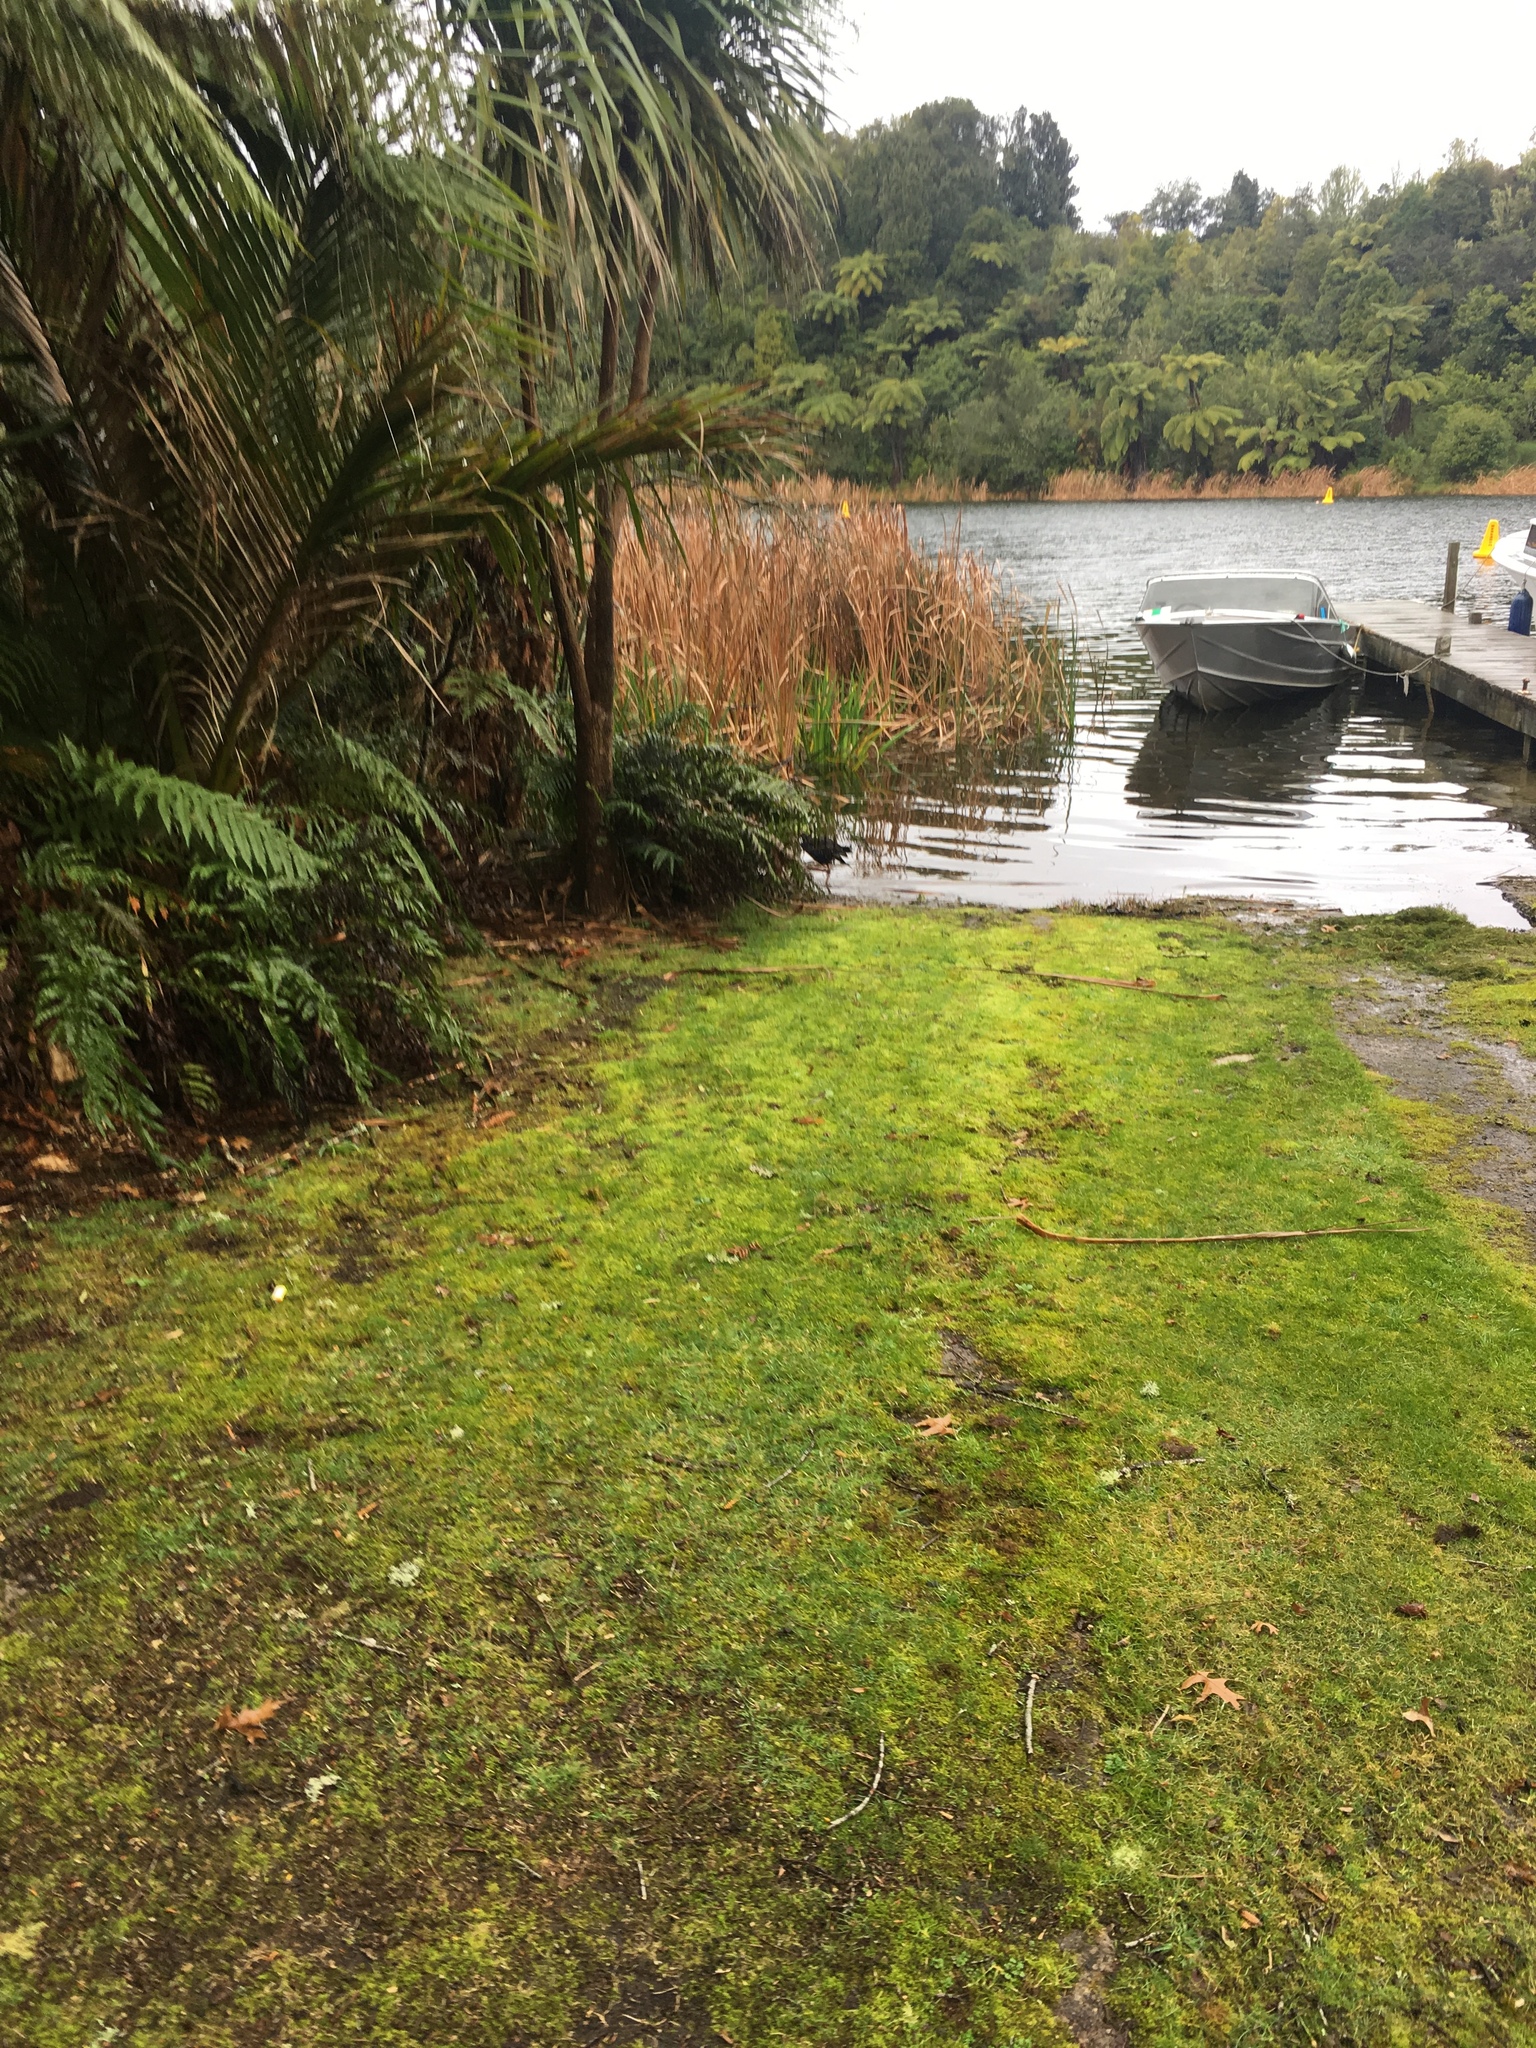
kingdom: Animalia
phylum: Chordata
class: Aves
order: Gruiformes
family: Rallidae
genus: Porphyrio
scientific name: Porphyrio melanotus
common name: Australasian swamphen
